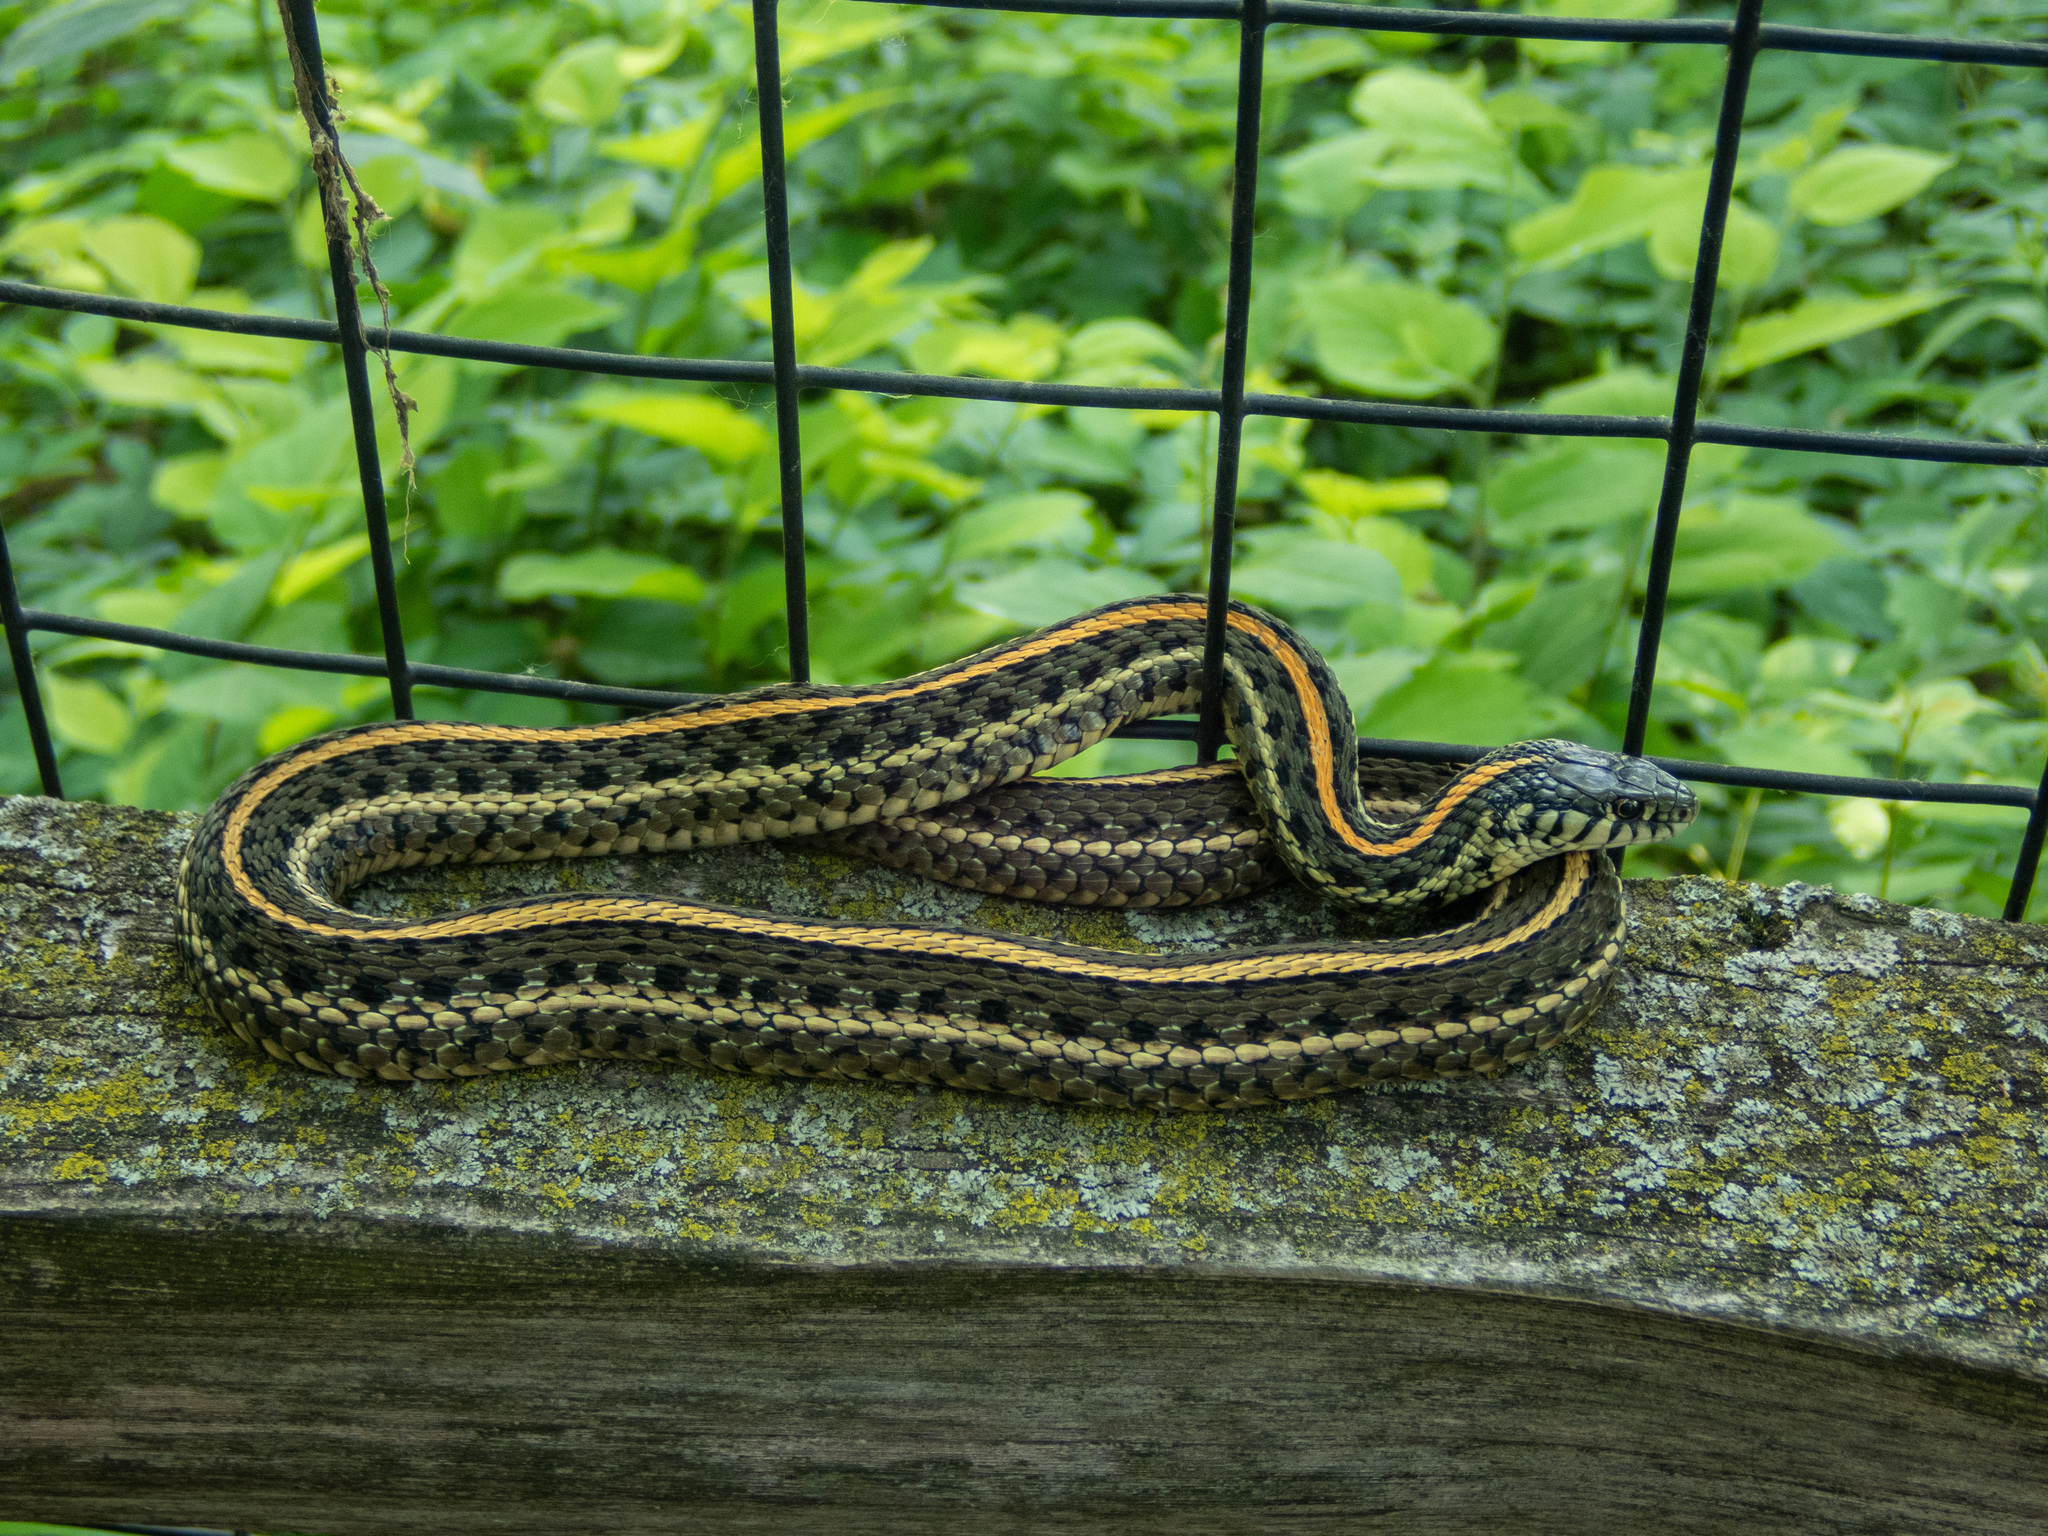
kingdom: Animalia
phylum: Chordata
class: Squamata
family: Colubridae
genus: Thamnophis
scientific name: Thamnophis radix
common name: Plains garter snake
